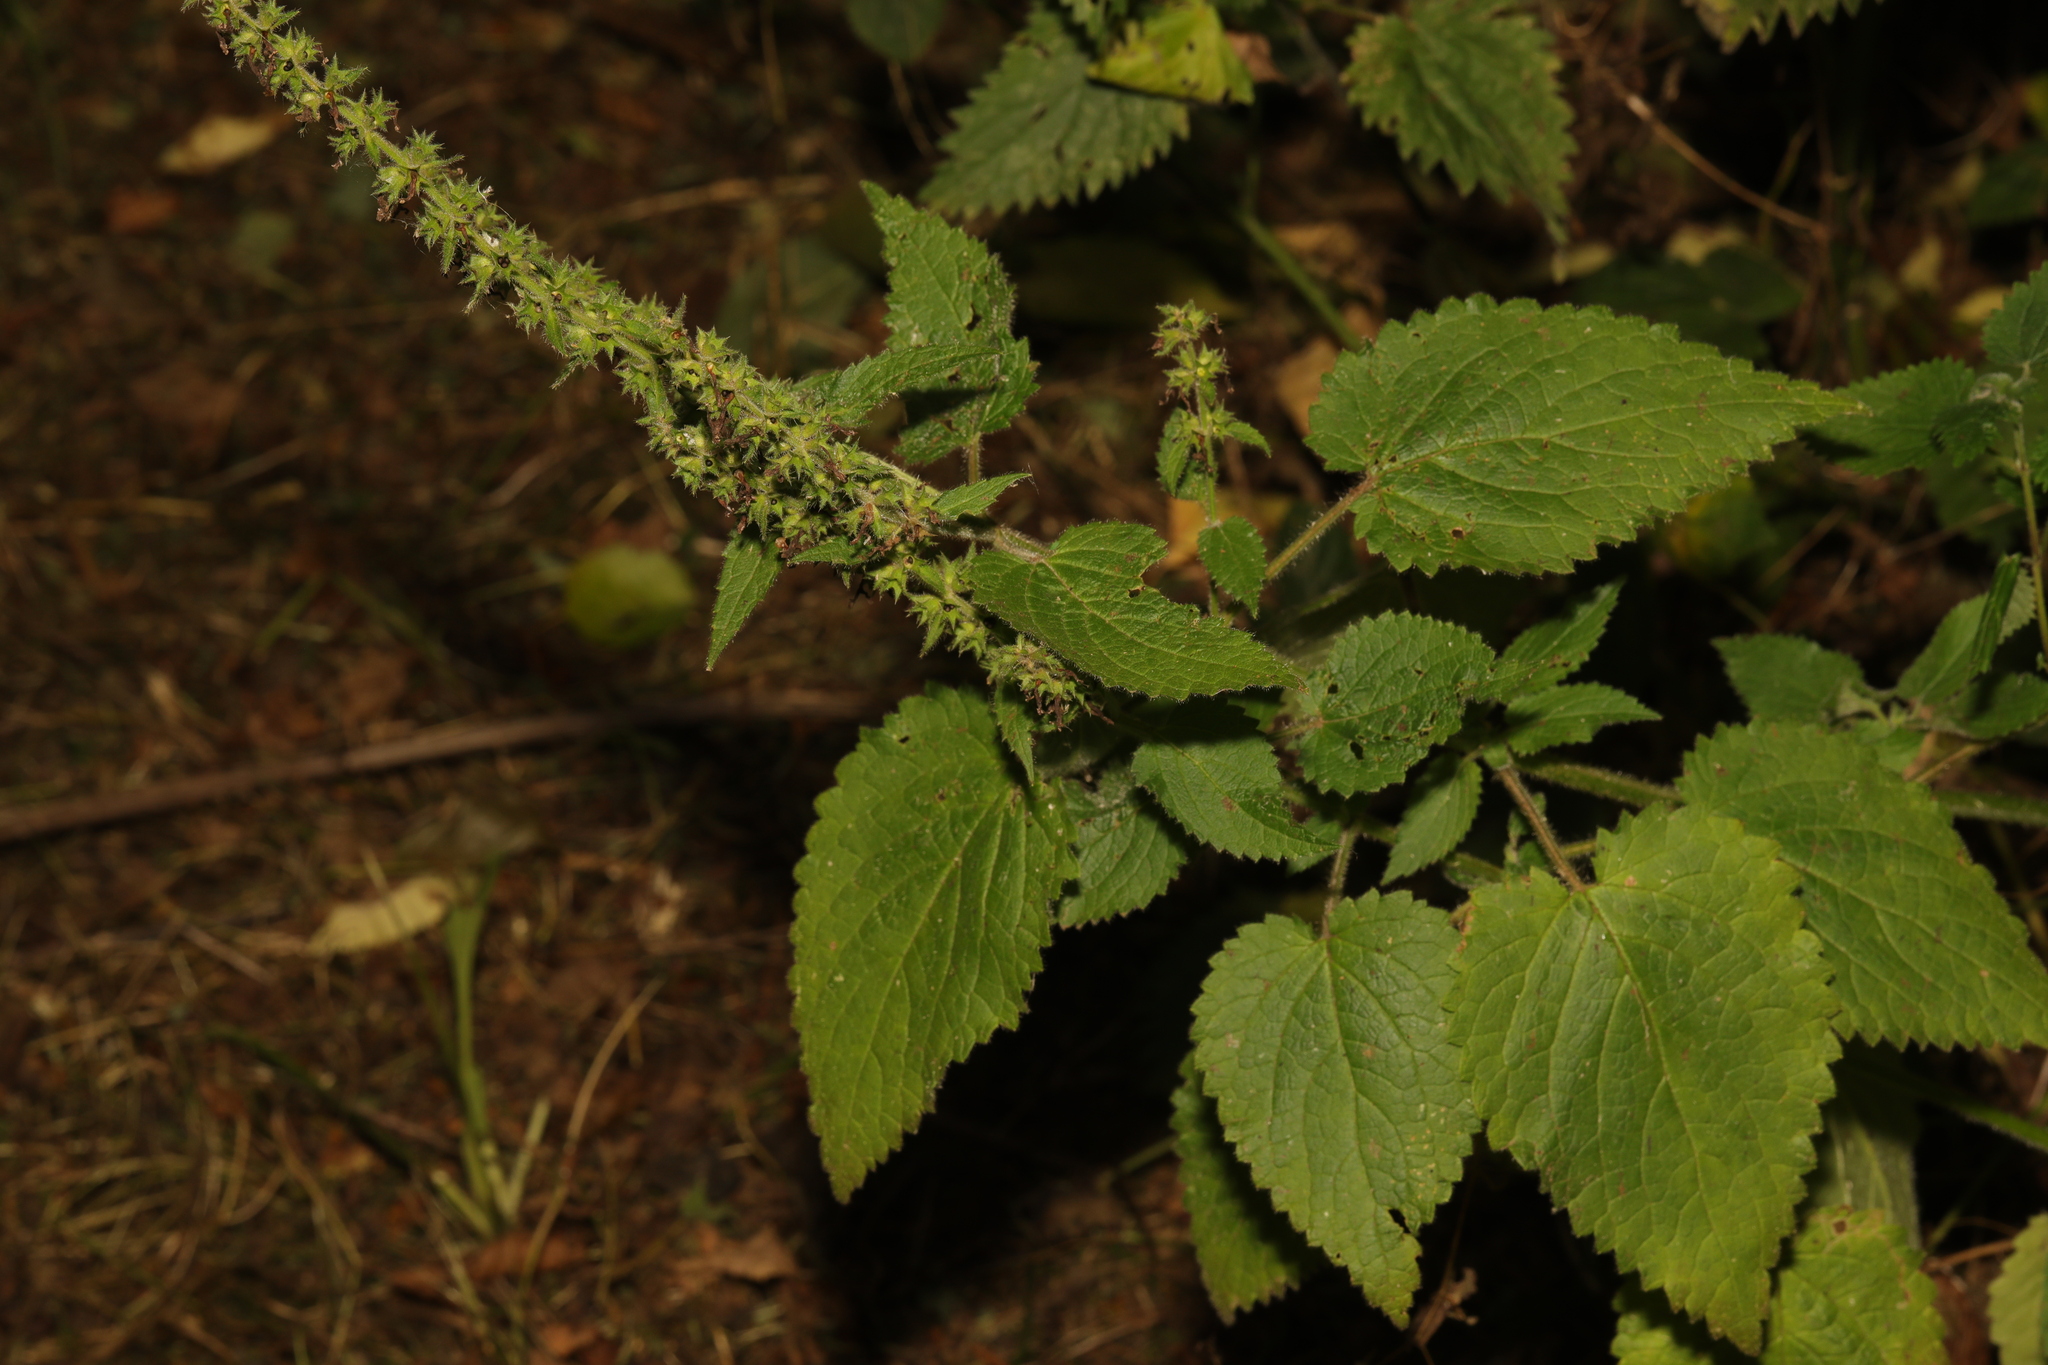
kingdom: Plantae
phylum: Tracheophyta
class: Magnoliopsida
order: Lamiales
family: Lamiaceae
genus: Stachys
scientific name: Stachys sylvatica
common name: Hedge woundwort
